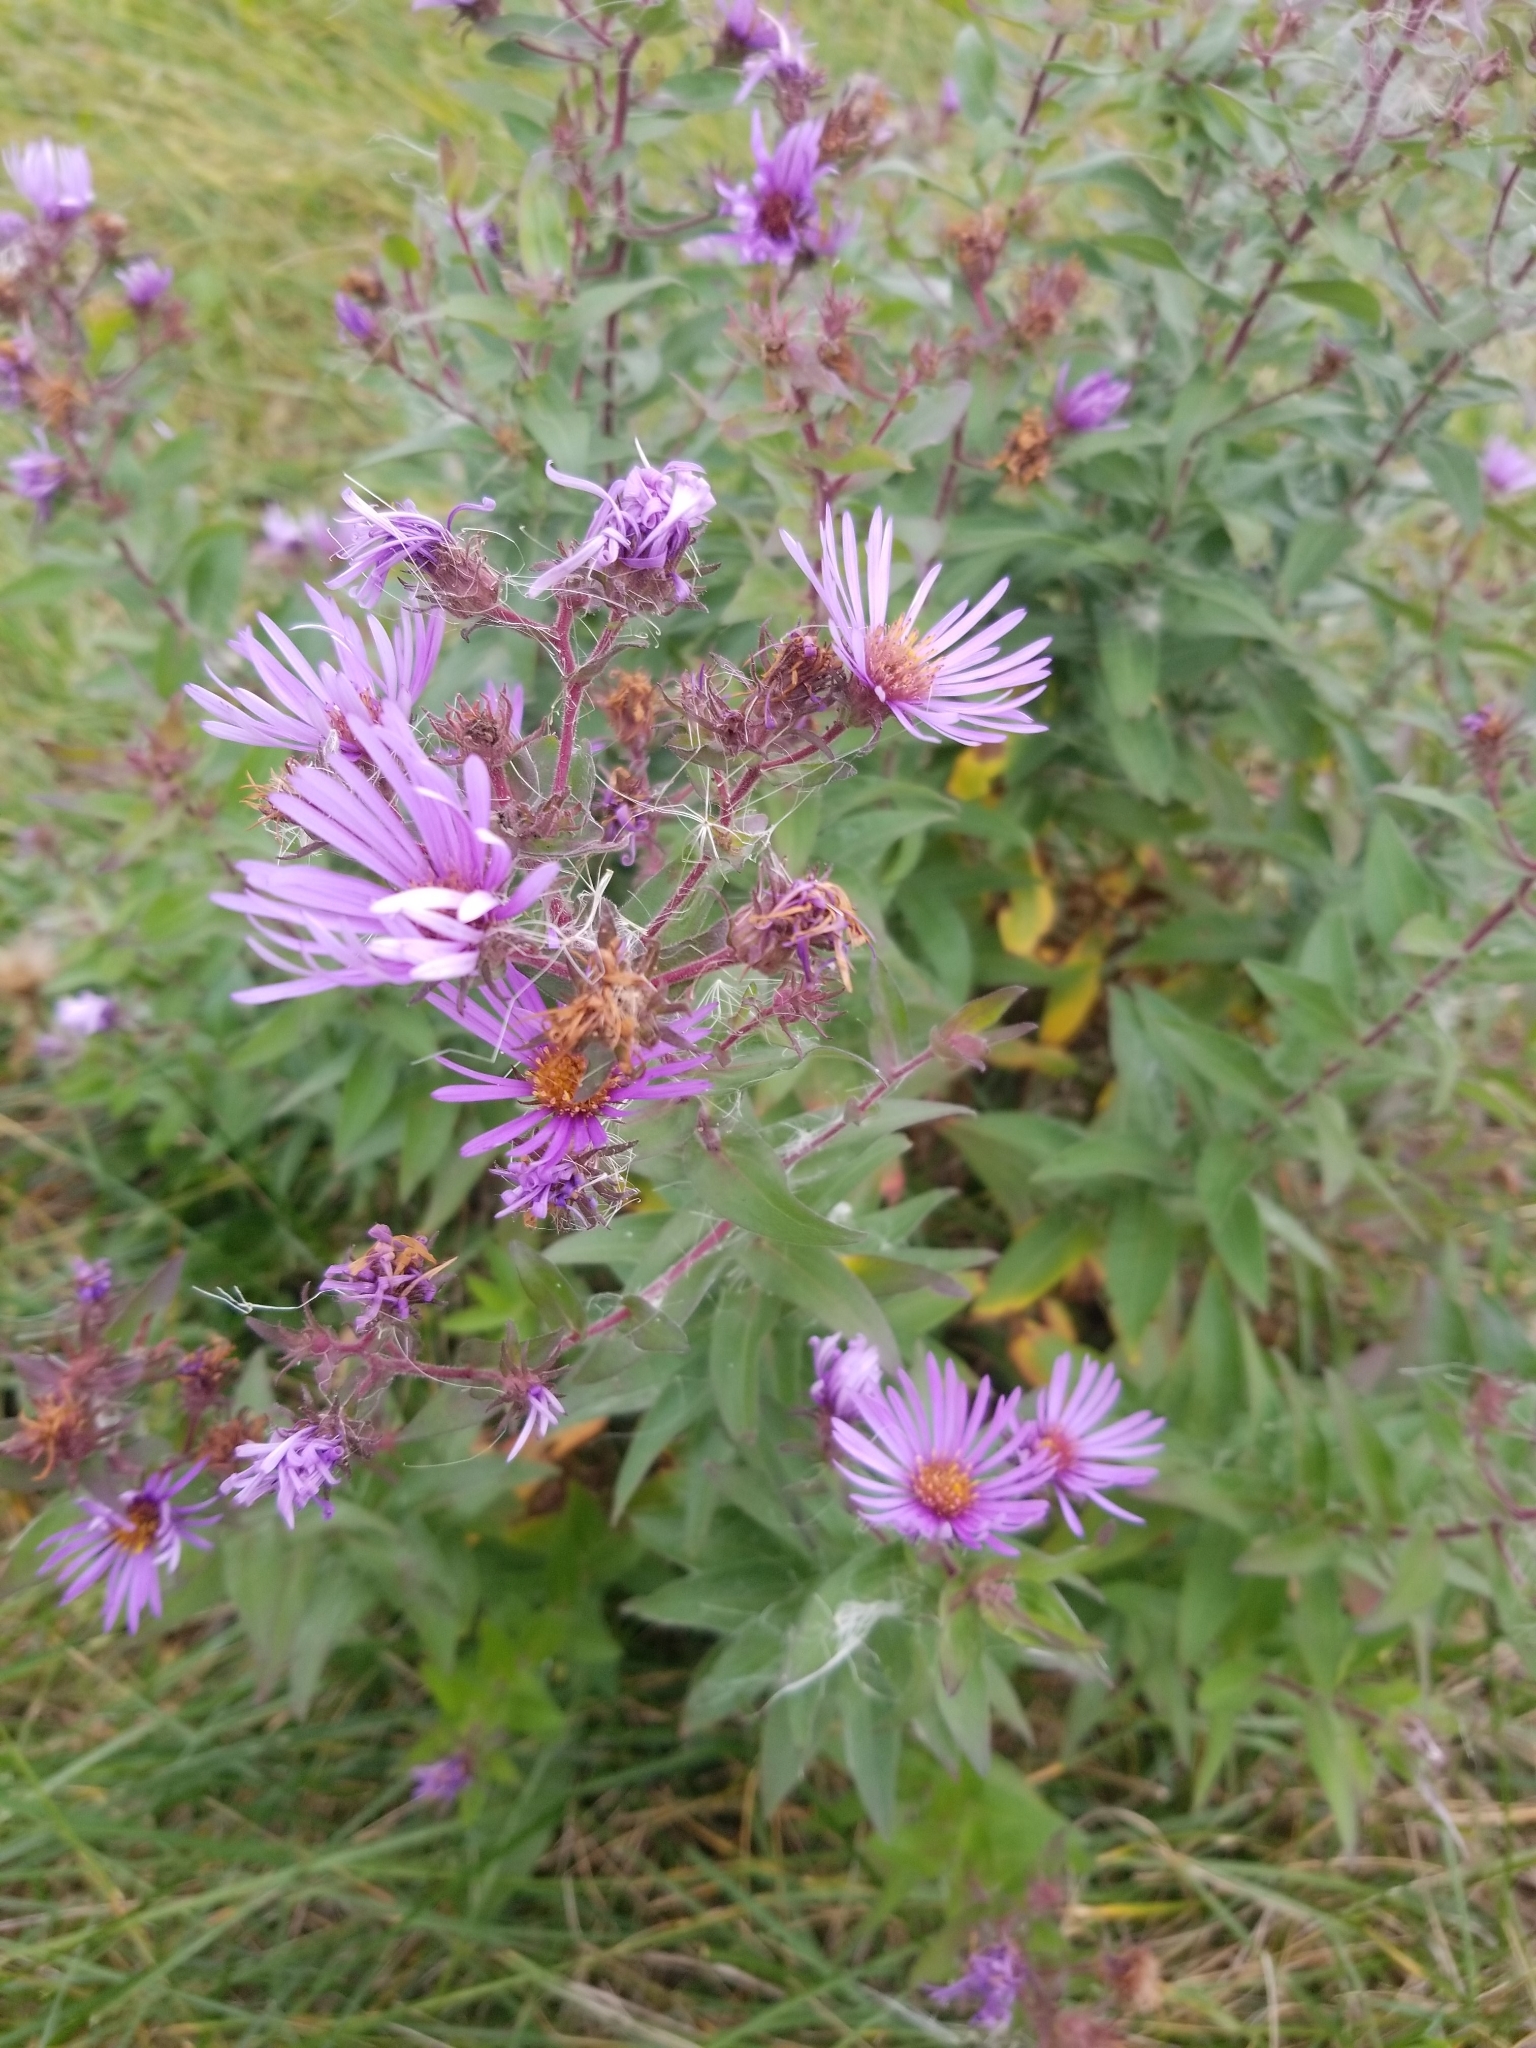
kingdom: Plantae
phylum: Tracheophyta
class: Magnoliopsida
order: Asterales
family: Asteraceae
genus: Symphyotrichum
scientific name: Symphyotrichum novae-angliae
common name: Michaelmas daisy
